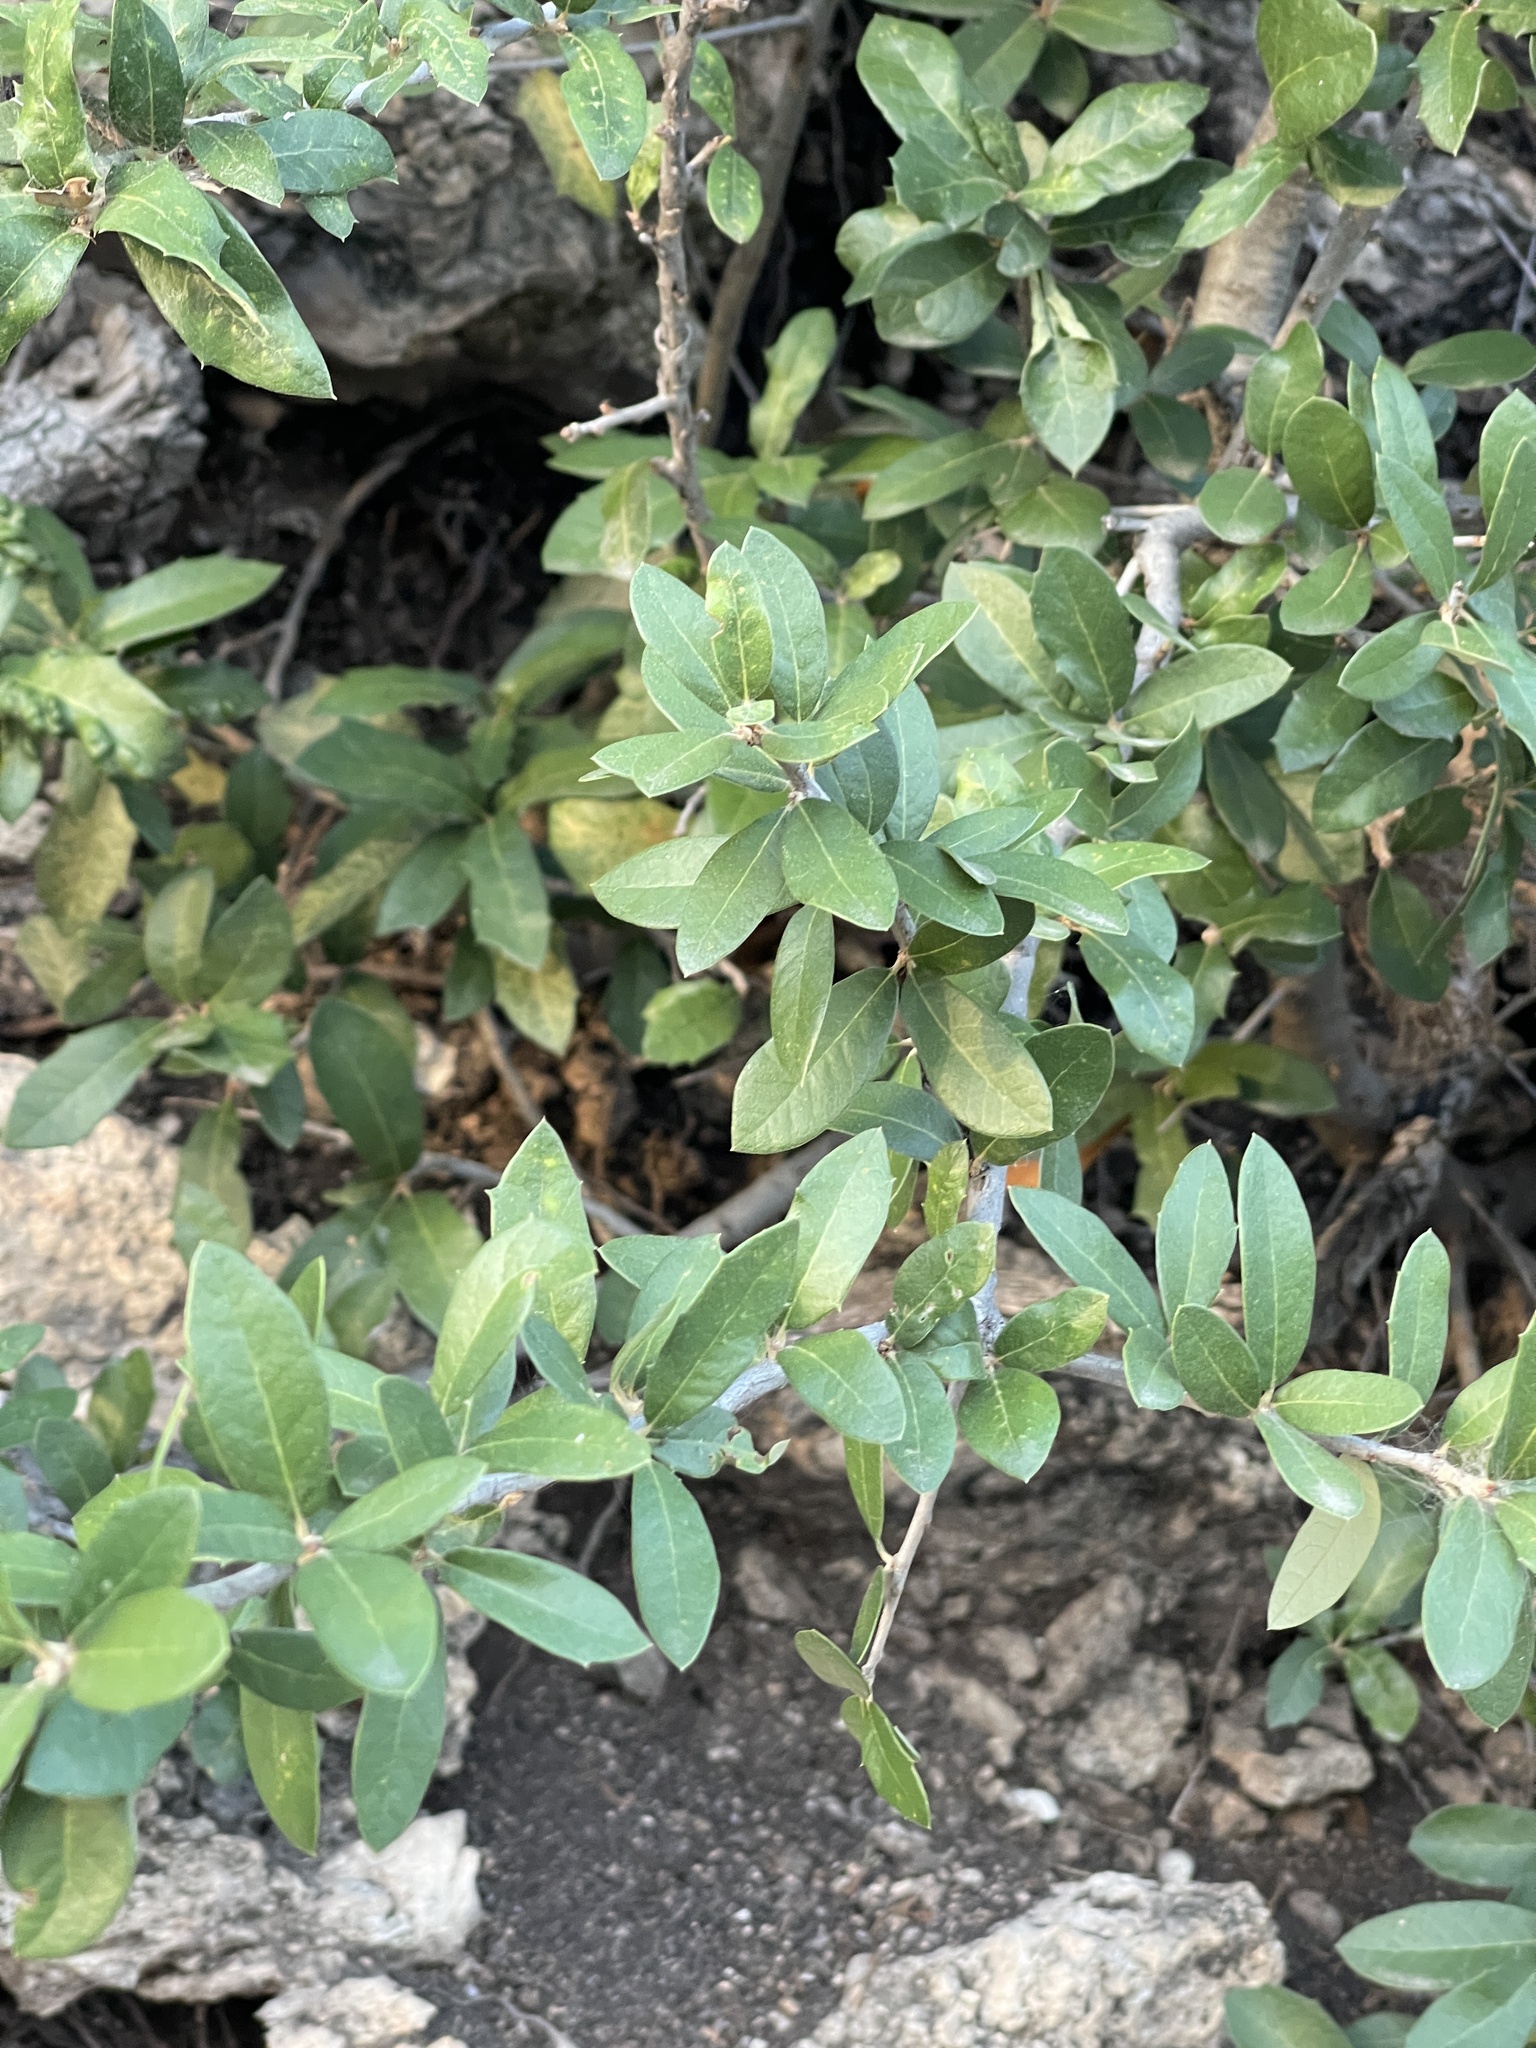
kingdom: Plantae
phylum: Tracheophyta
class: Magnoliopsida
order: Fagales
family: Fagaceae
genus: Quercus
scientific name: Quercus fusiformis
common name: Texas live oak
